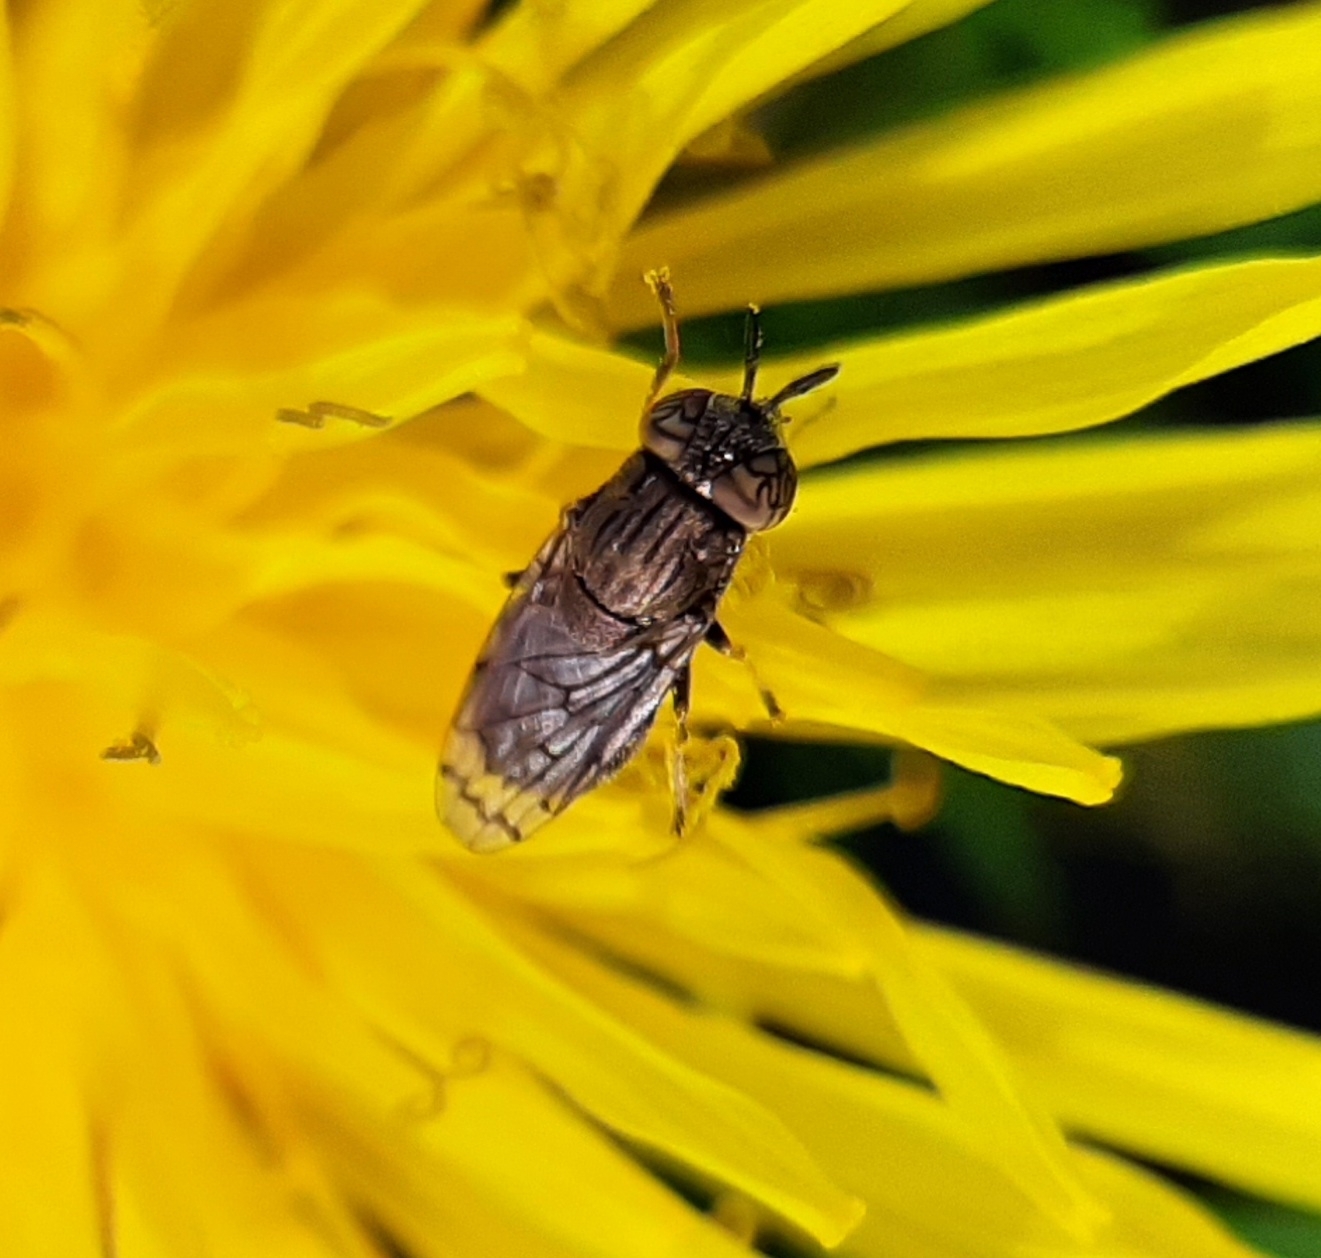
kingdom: Animalia
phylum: Arthropoda
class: Insecta
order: Diptera
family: Syrphidae
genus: Orthonevra
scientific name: Orthonevra nitida
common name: Wavy mucksucker
